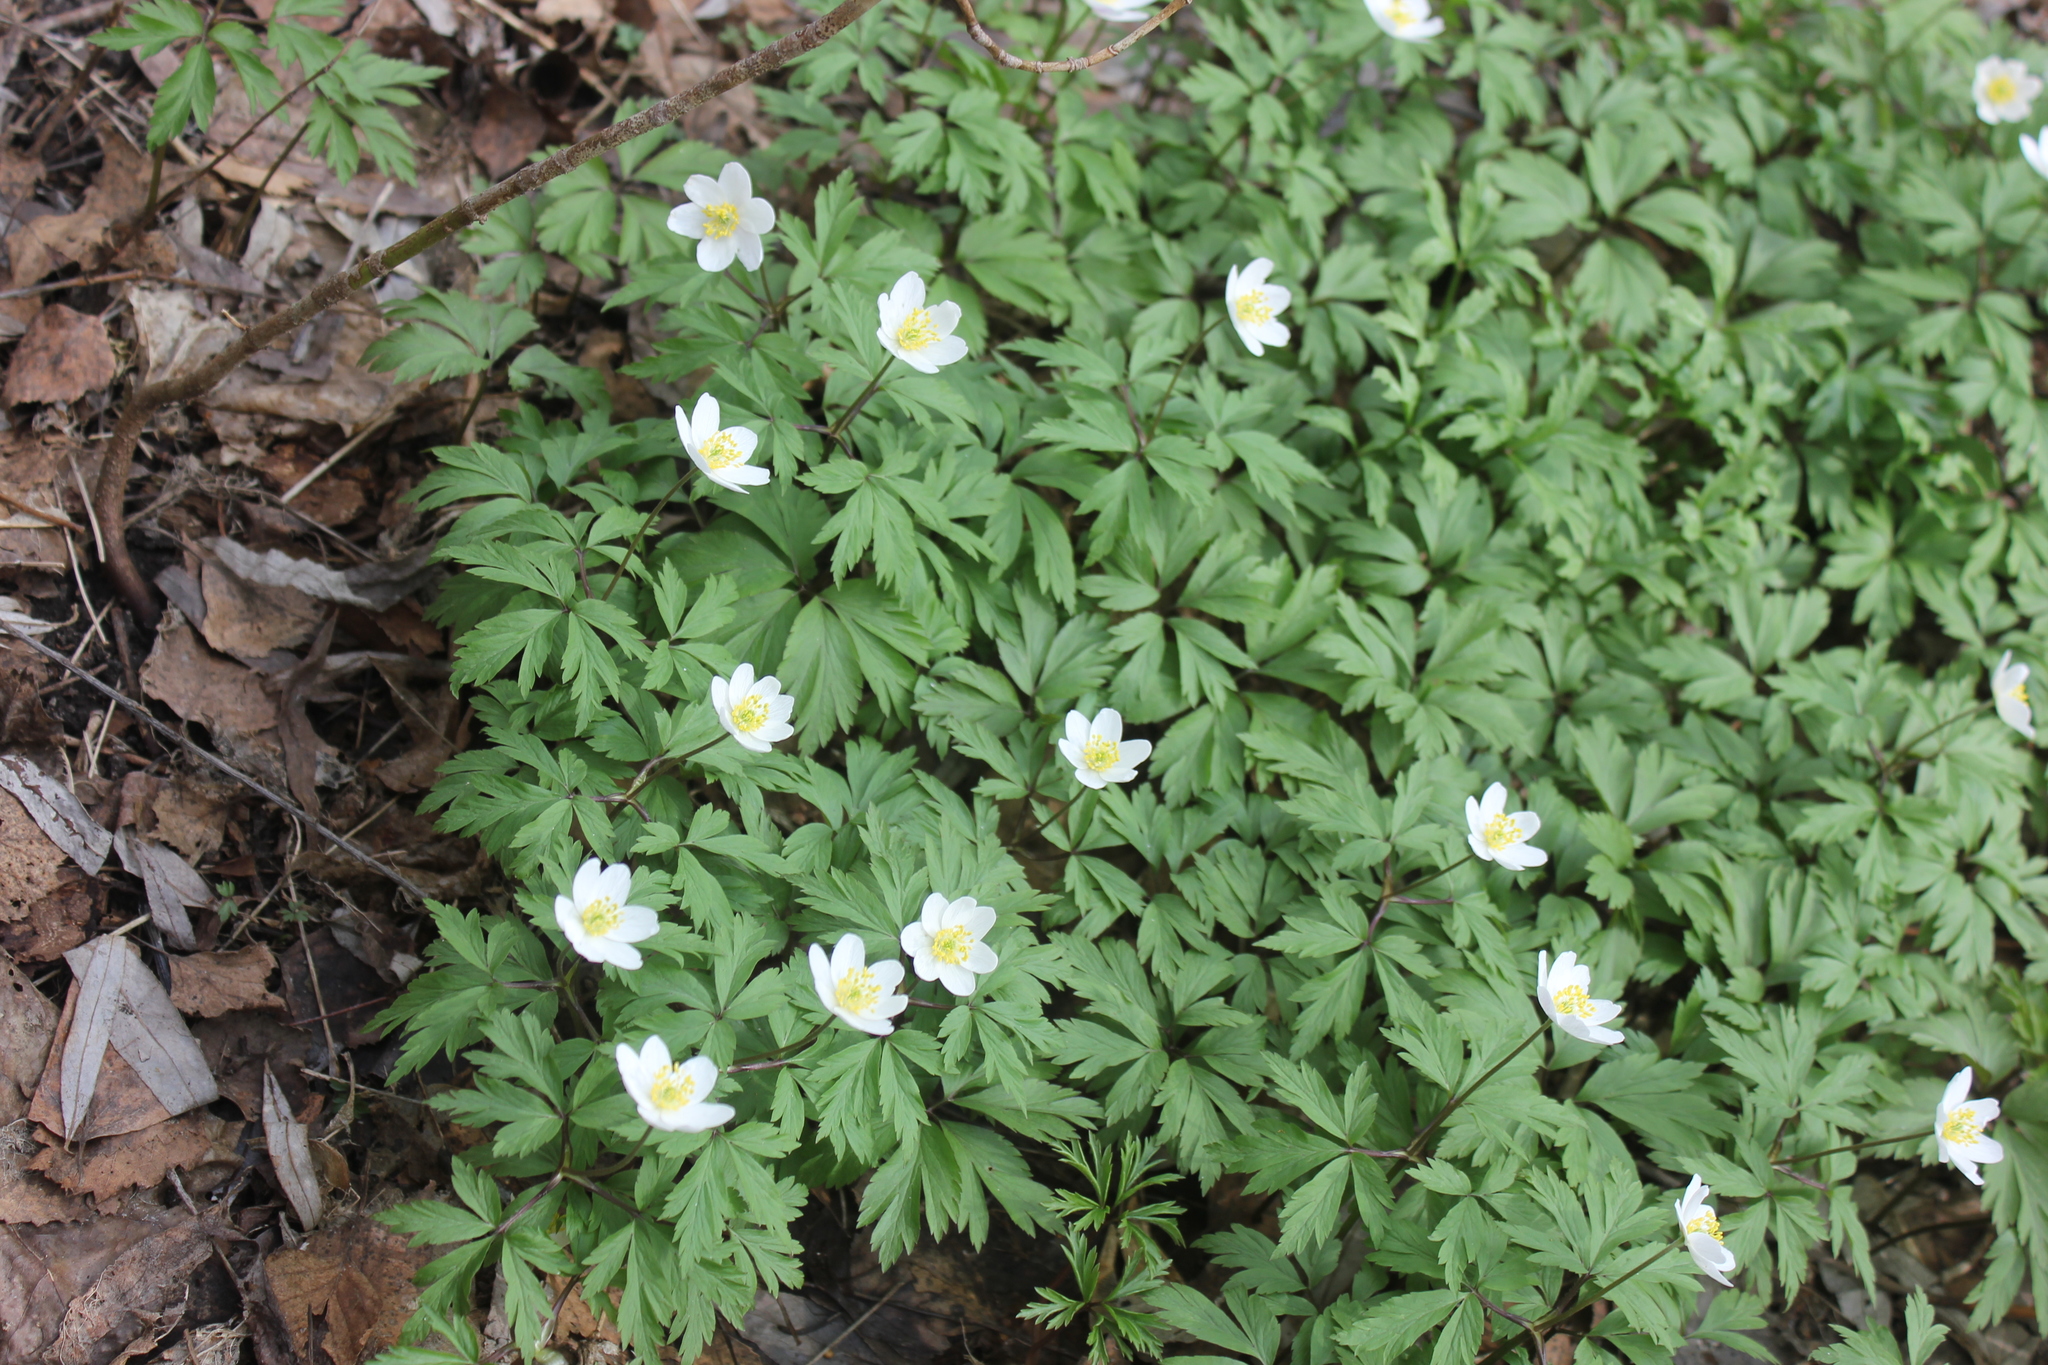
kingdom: Plantae
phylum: Tracheophyta
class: Magnoliopsida
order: Ranunculales
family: Ranunculaceae
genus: Anemone
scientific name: Anemone nemorosa
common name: Wood anemone
